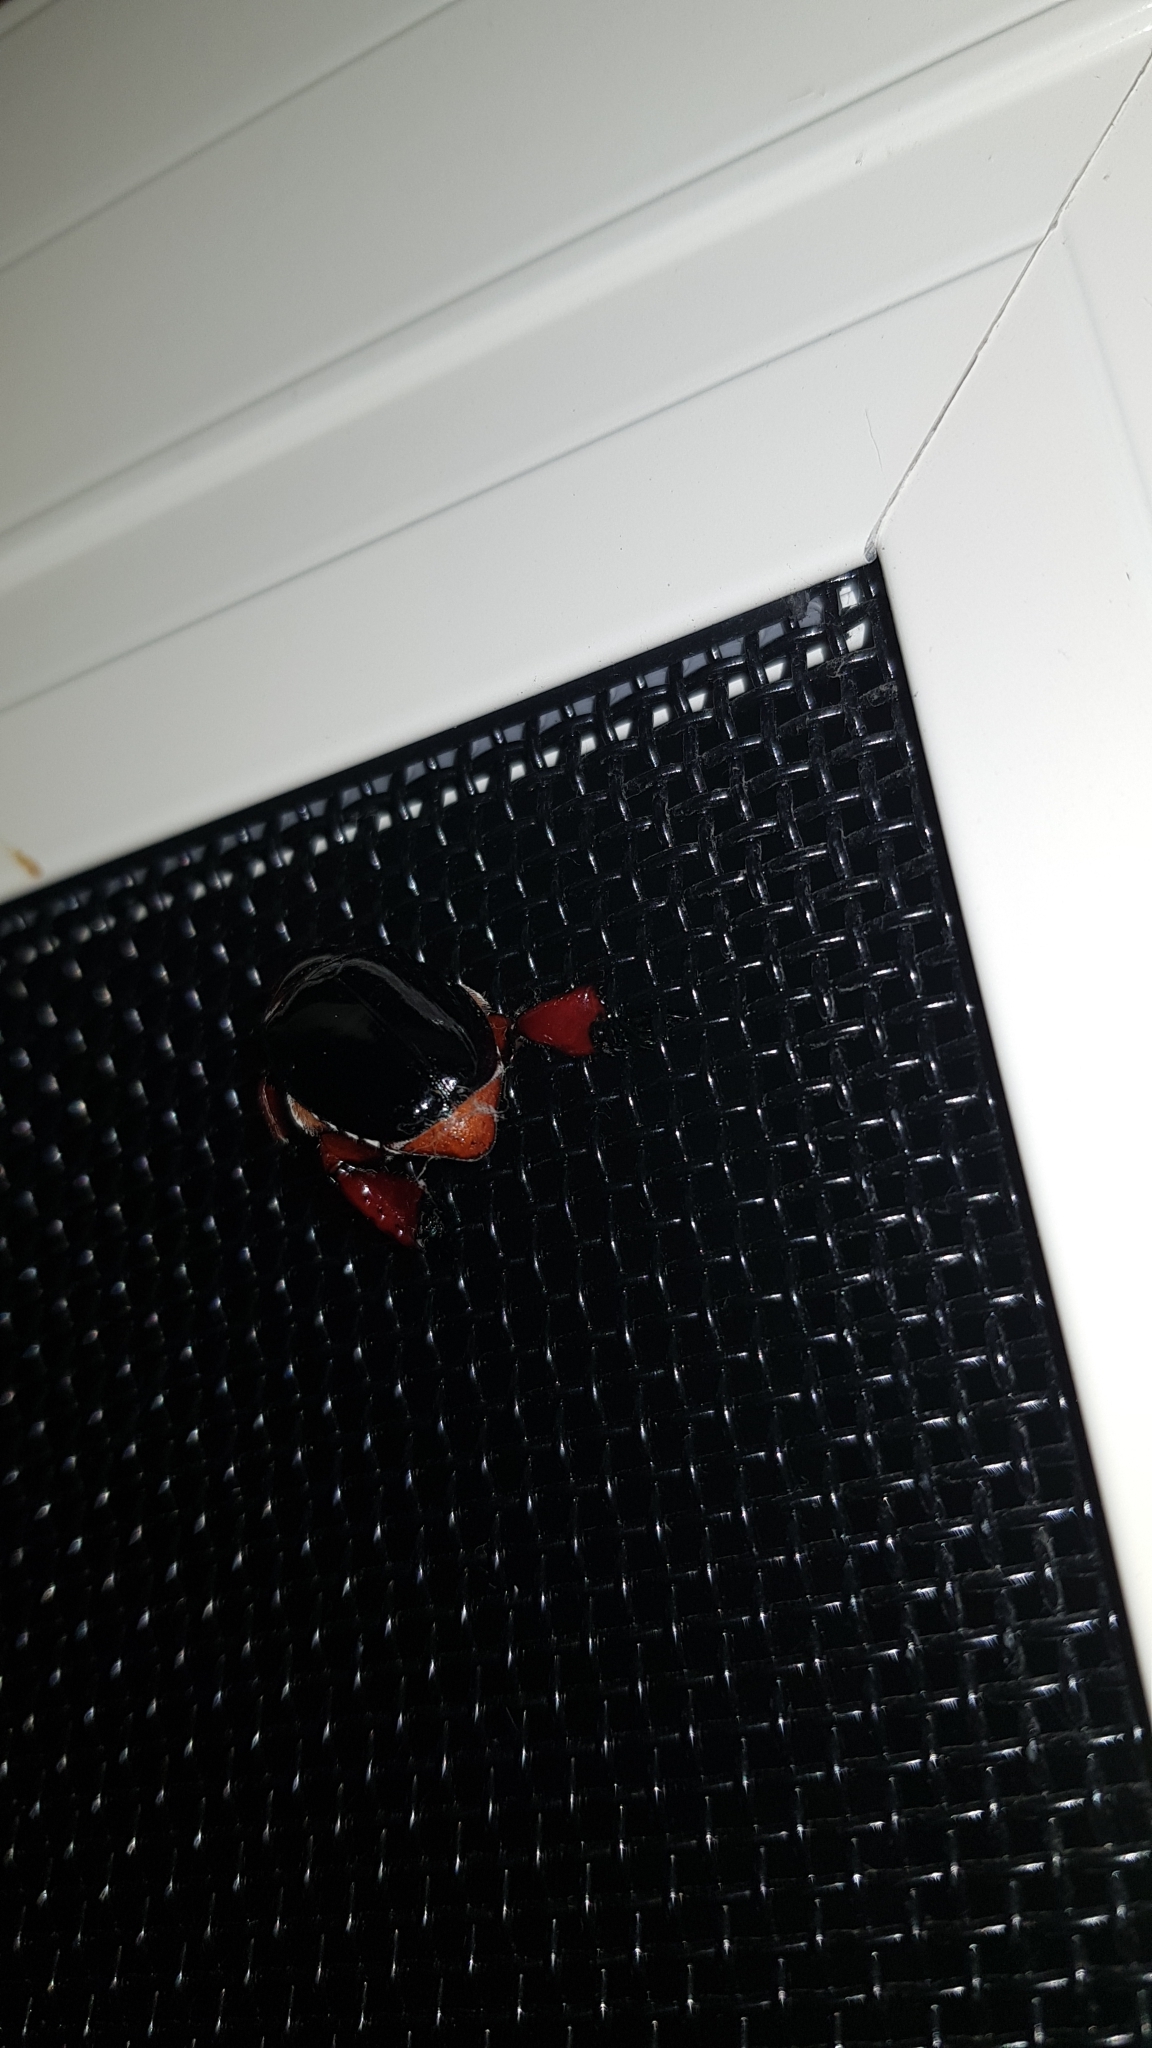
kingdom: Animalia
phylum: Arthropoda
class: Insecta
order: Coleoptera
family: Scarabaeidae
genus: Repsimus
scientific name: Repsimus manicatus
